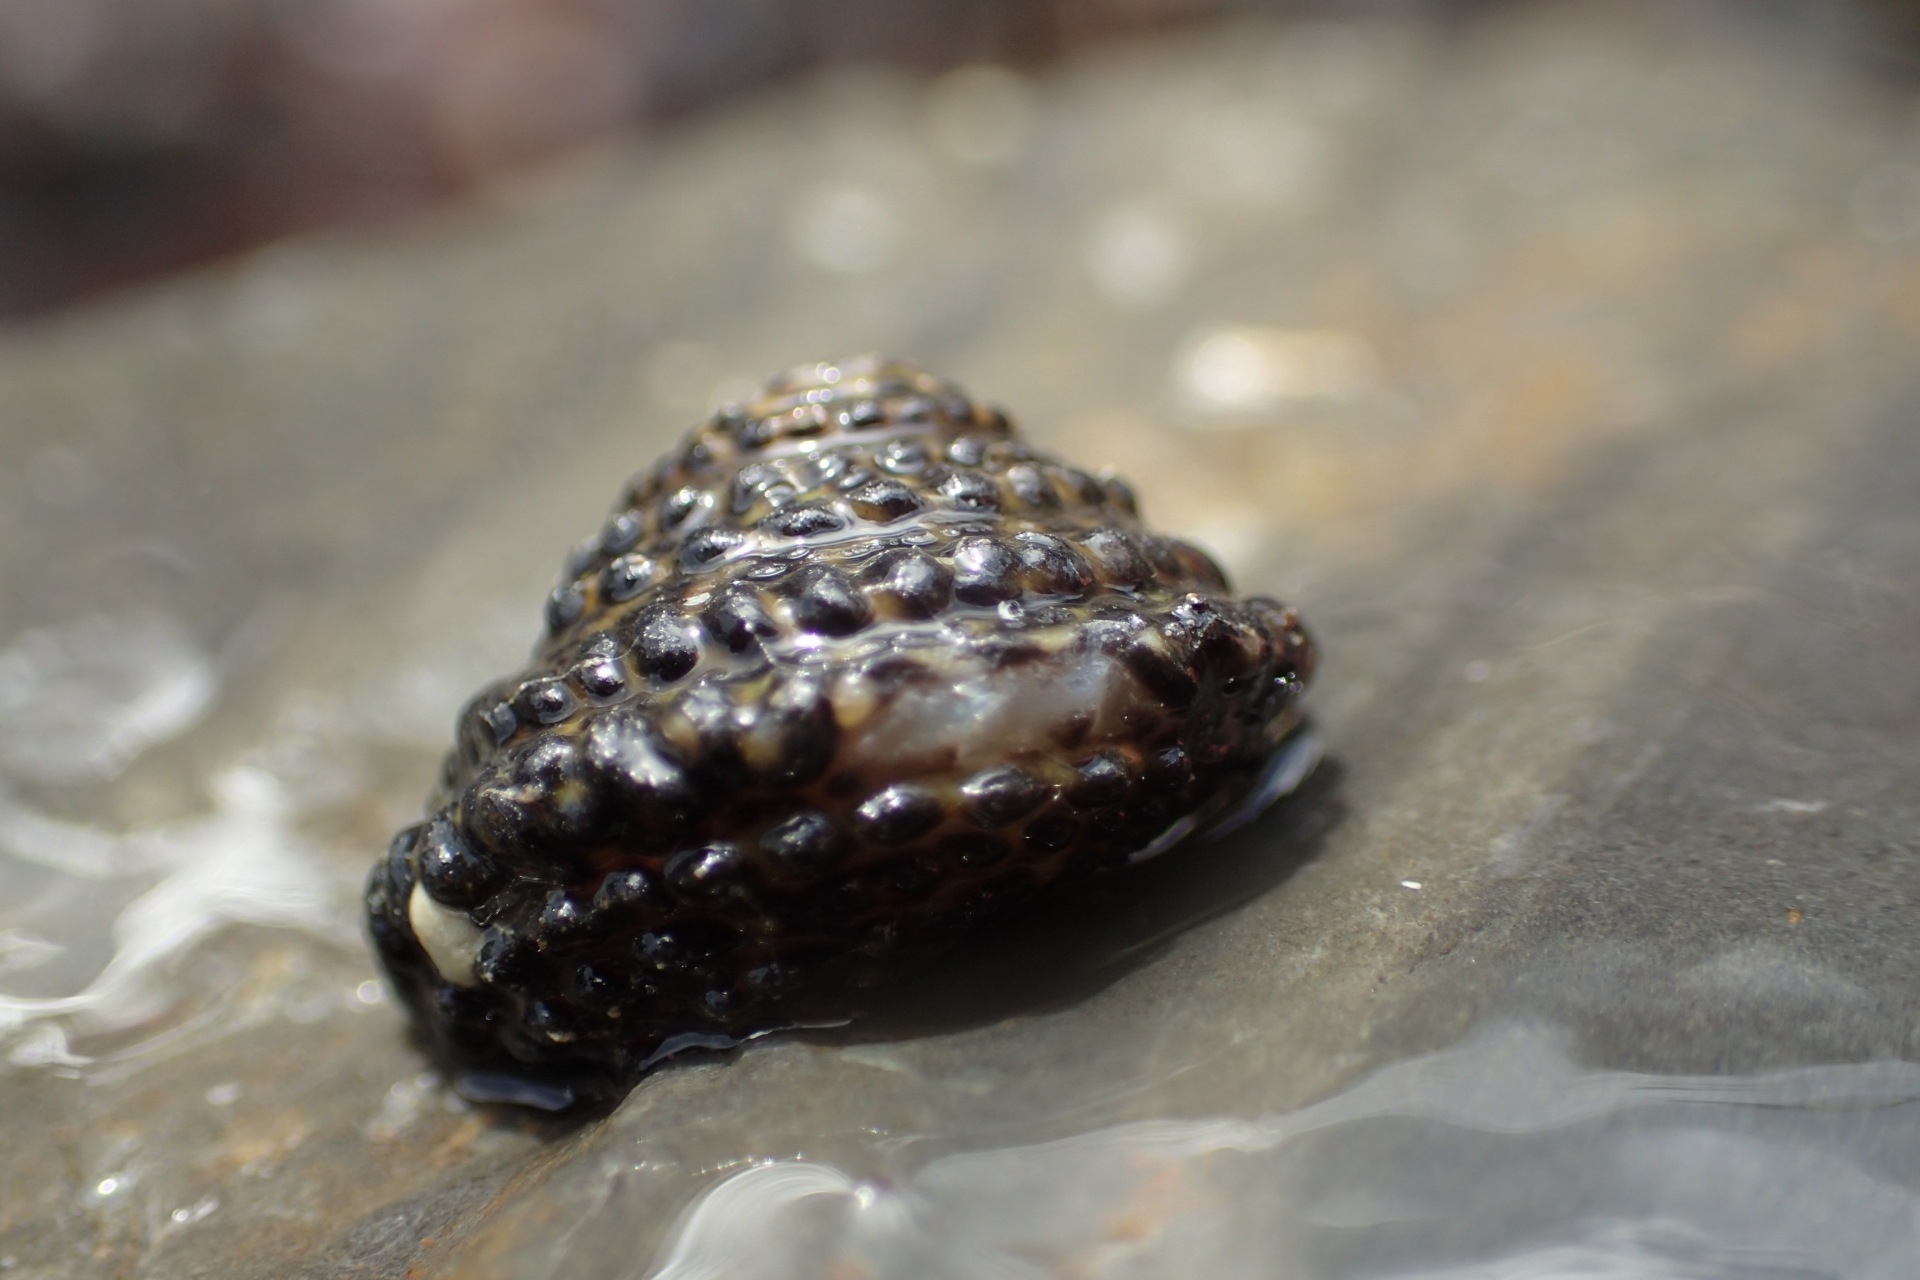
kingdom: Animalia
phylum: Mollusca
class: Gastropoda
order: Trochida
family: Trochidae
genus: Diloma
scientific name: Diloma bicanaliculatum
